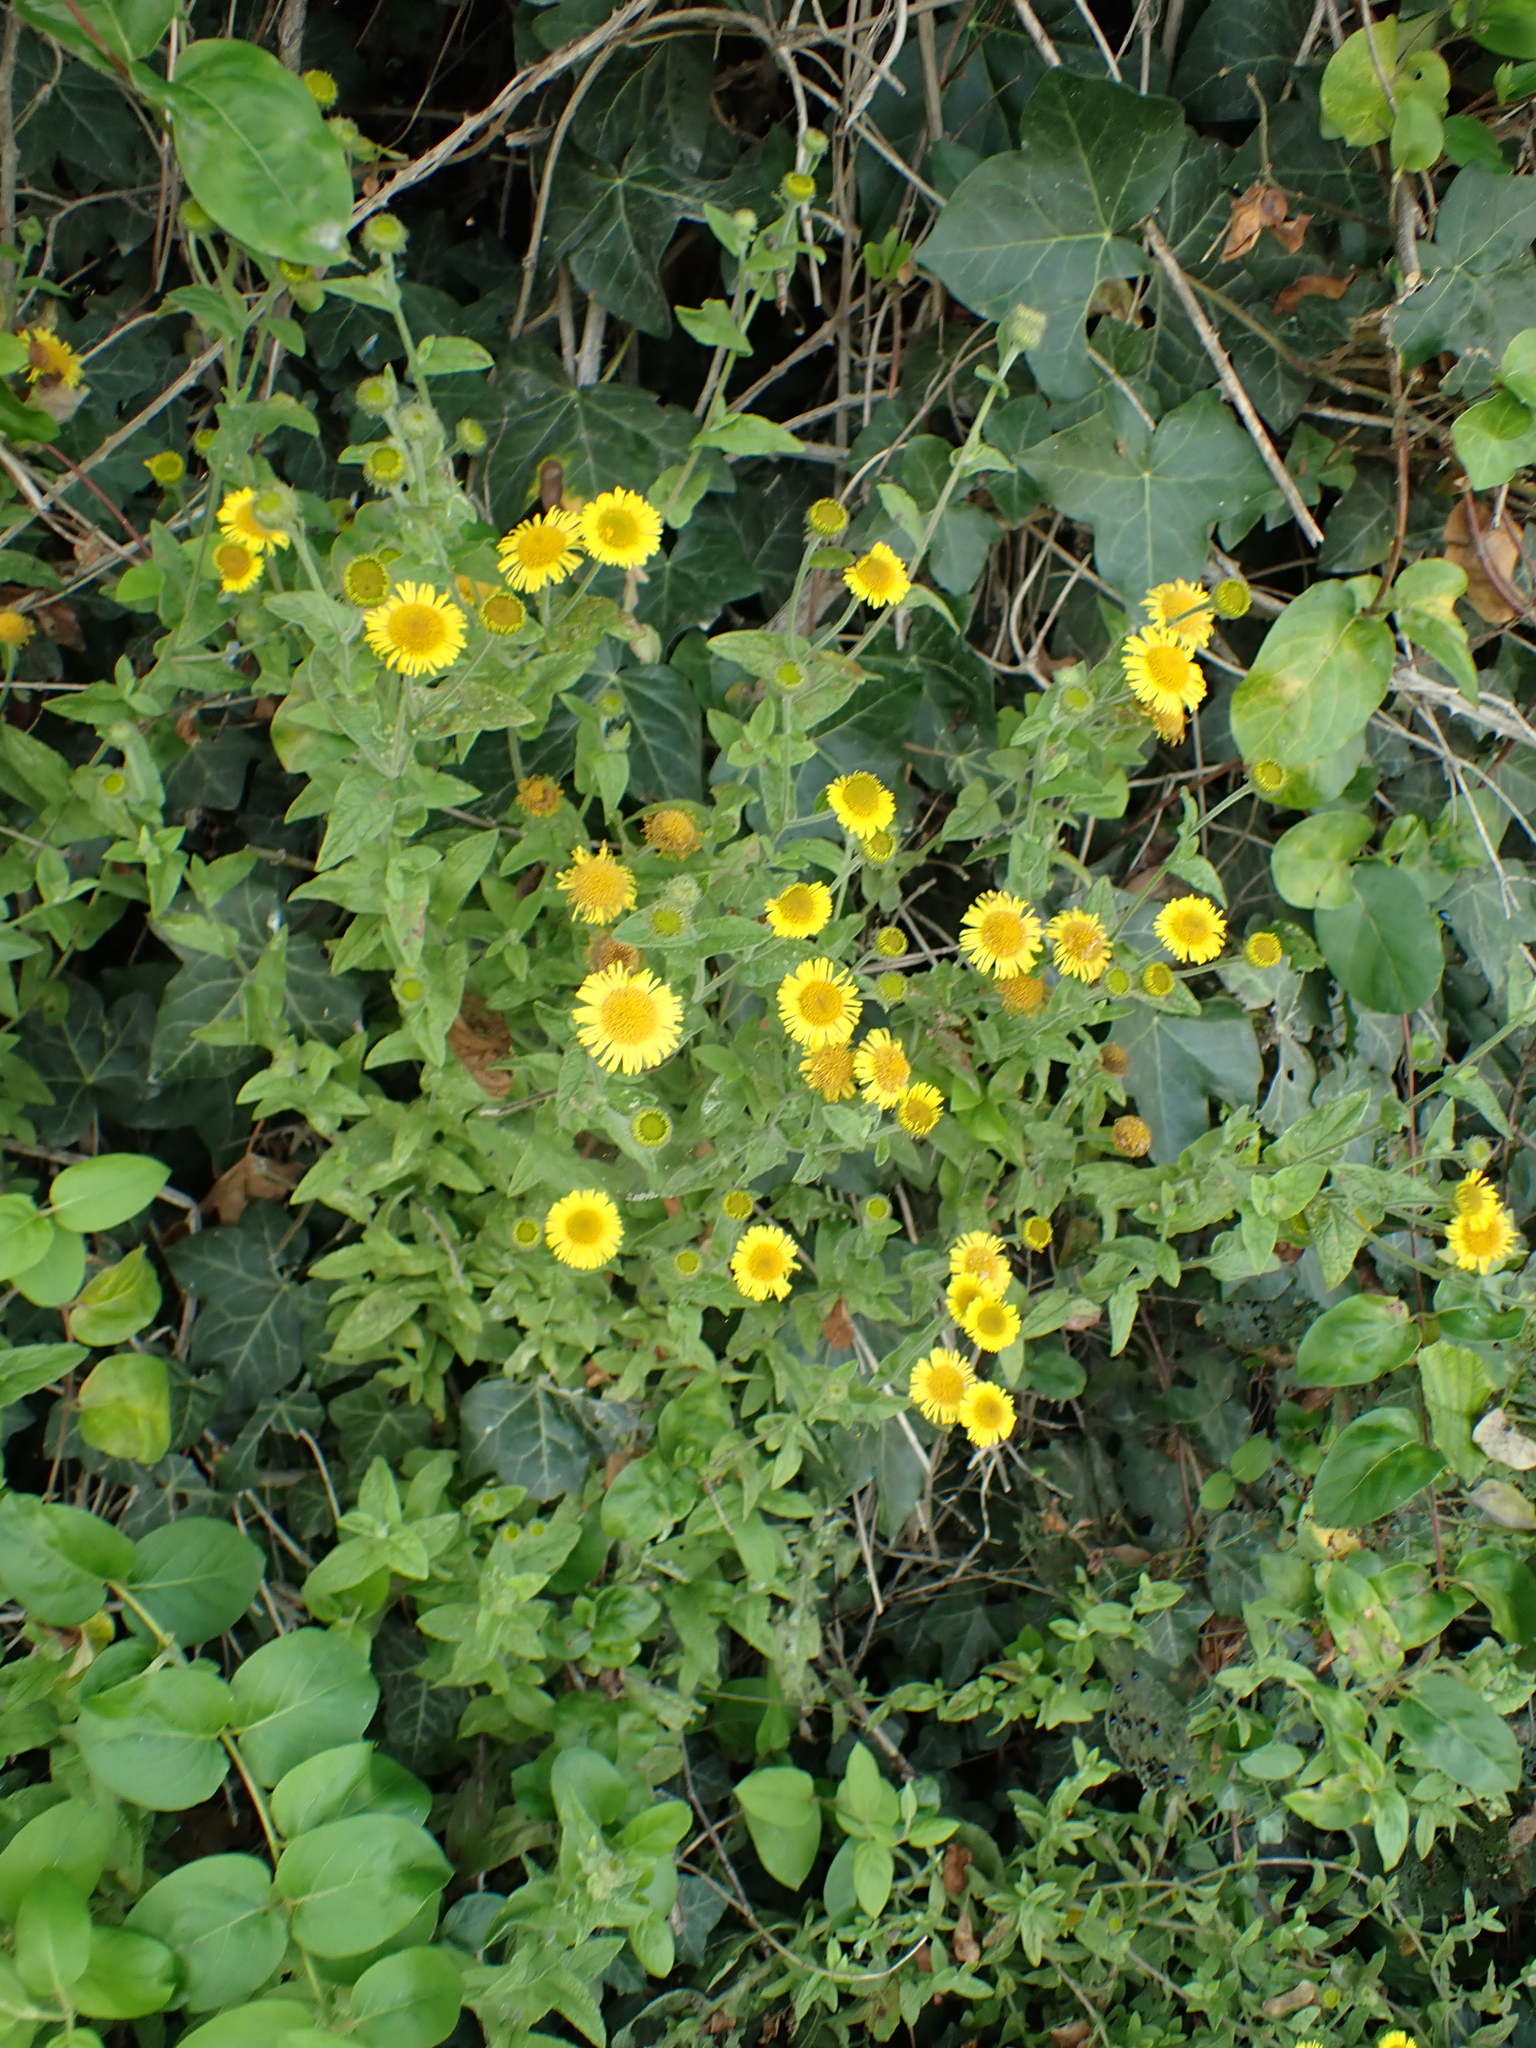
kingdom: Plantae
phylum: Tracheophyta
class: Magnoliopsida
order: Asterales
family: Asteraceae
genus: Pulicaria
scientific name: Pulicaria dysenterica
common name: Common fleabane
